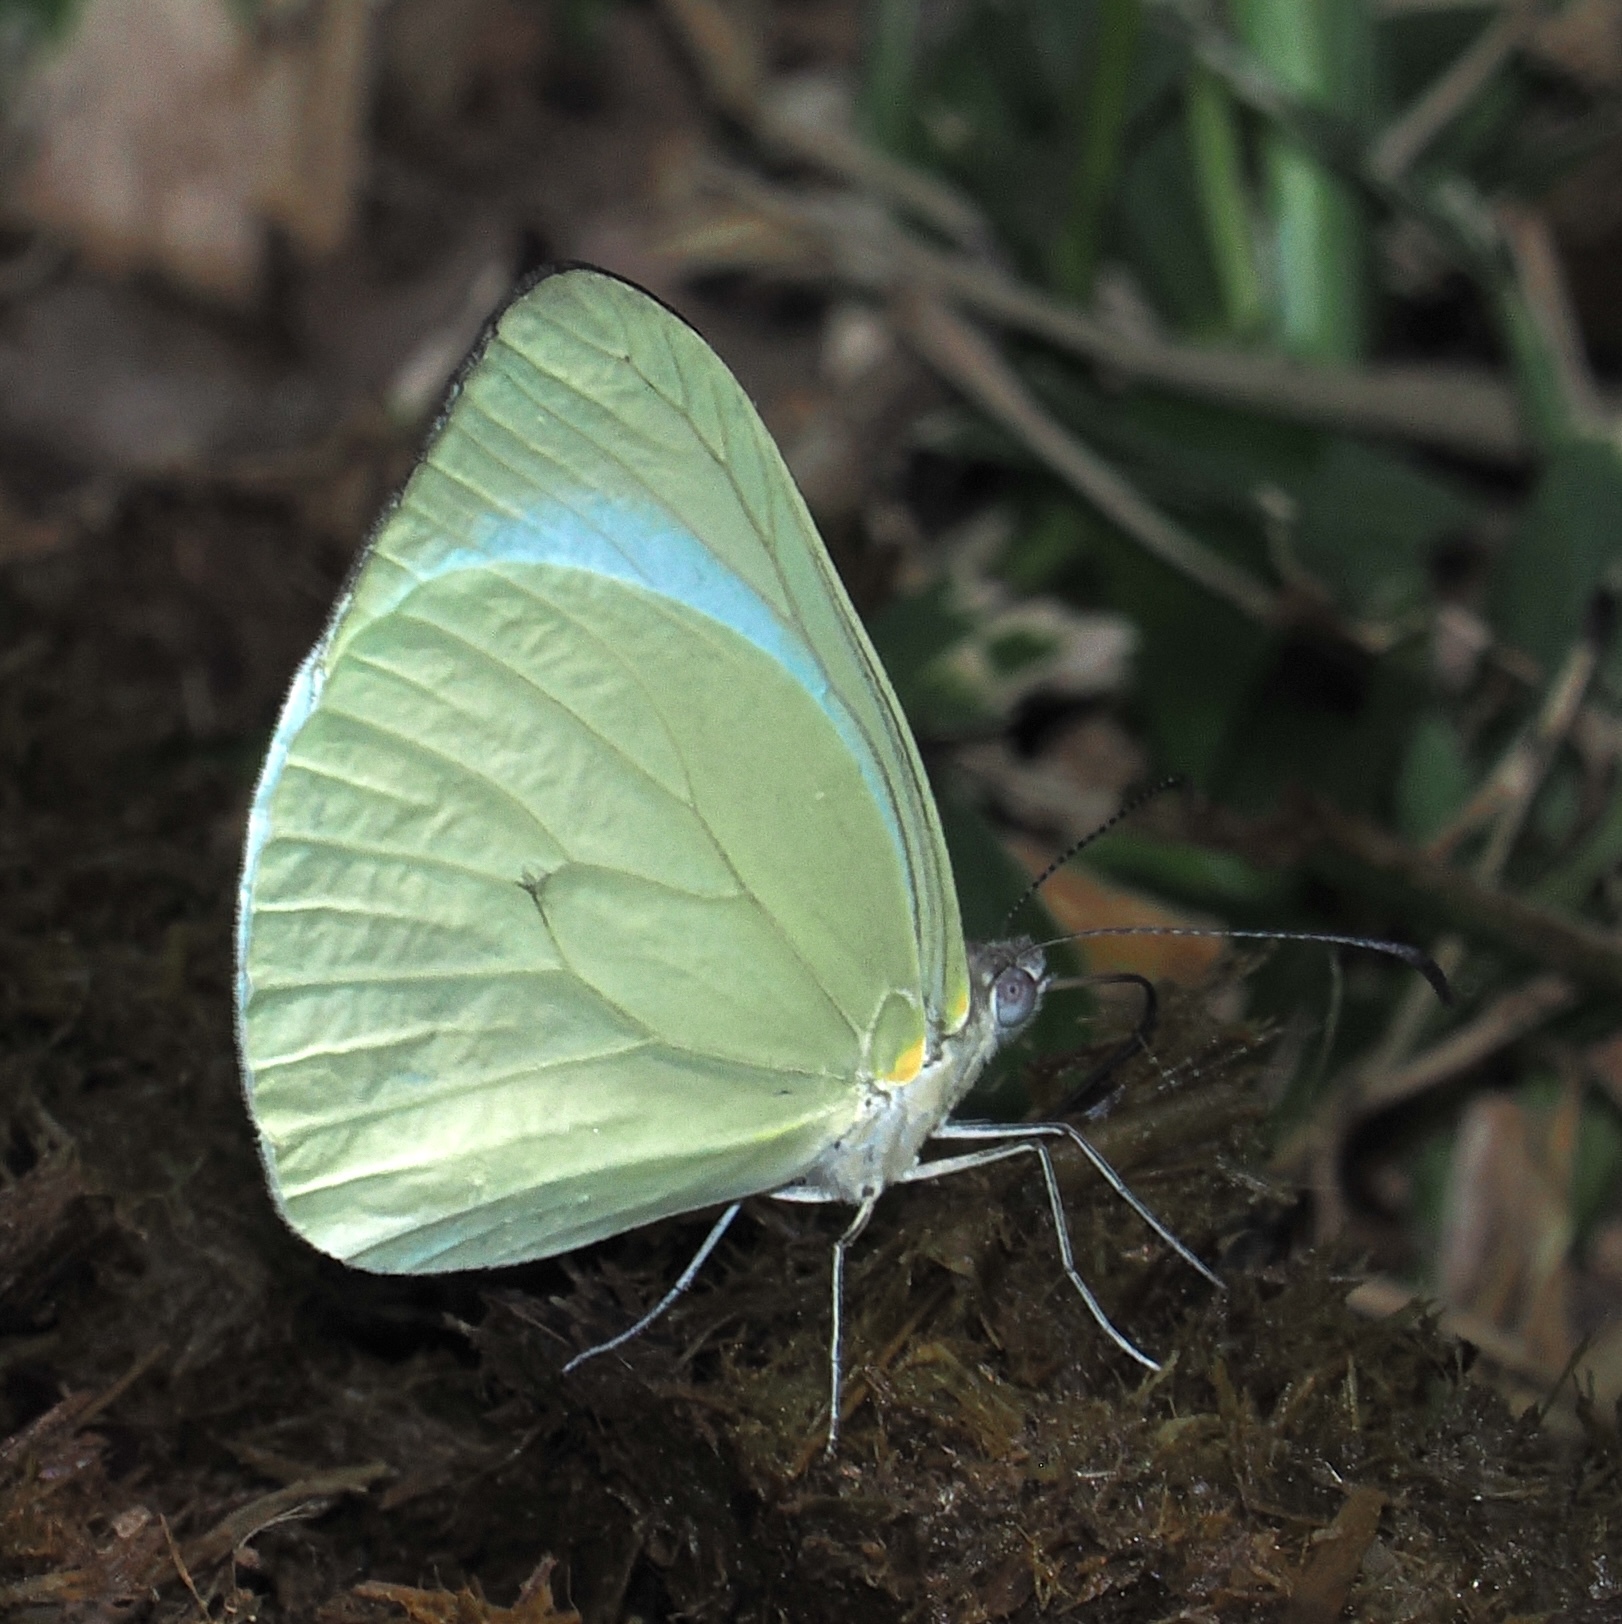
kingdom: Animalia
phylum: Arthropoda
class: Insecta
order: Lepidoptera
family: Pieridae
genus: Pseudopieris
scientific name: Pseudopieris nehemia
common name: Clean mimic-white
